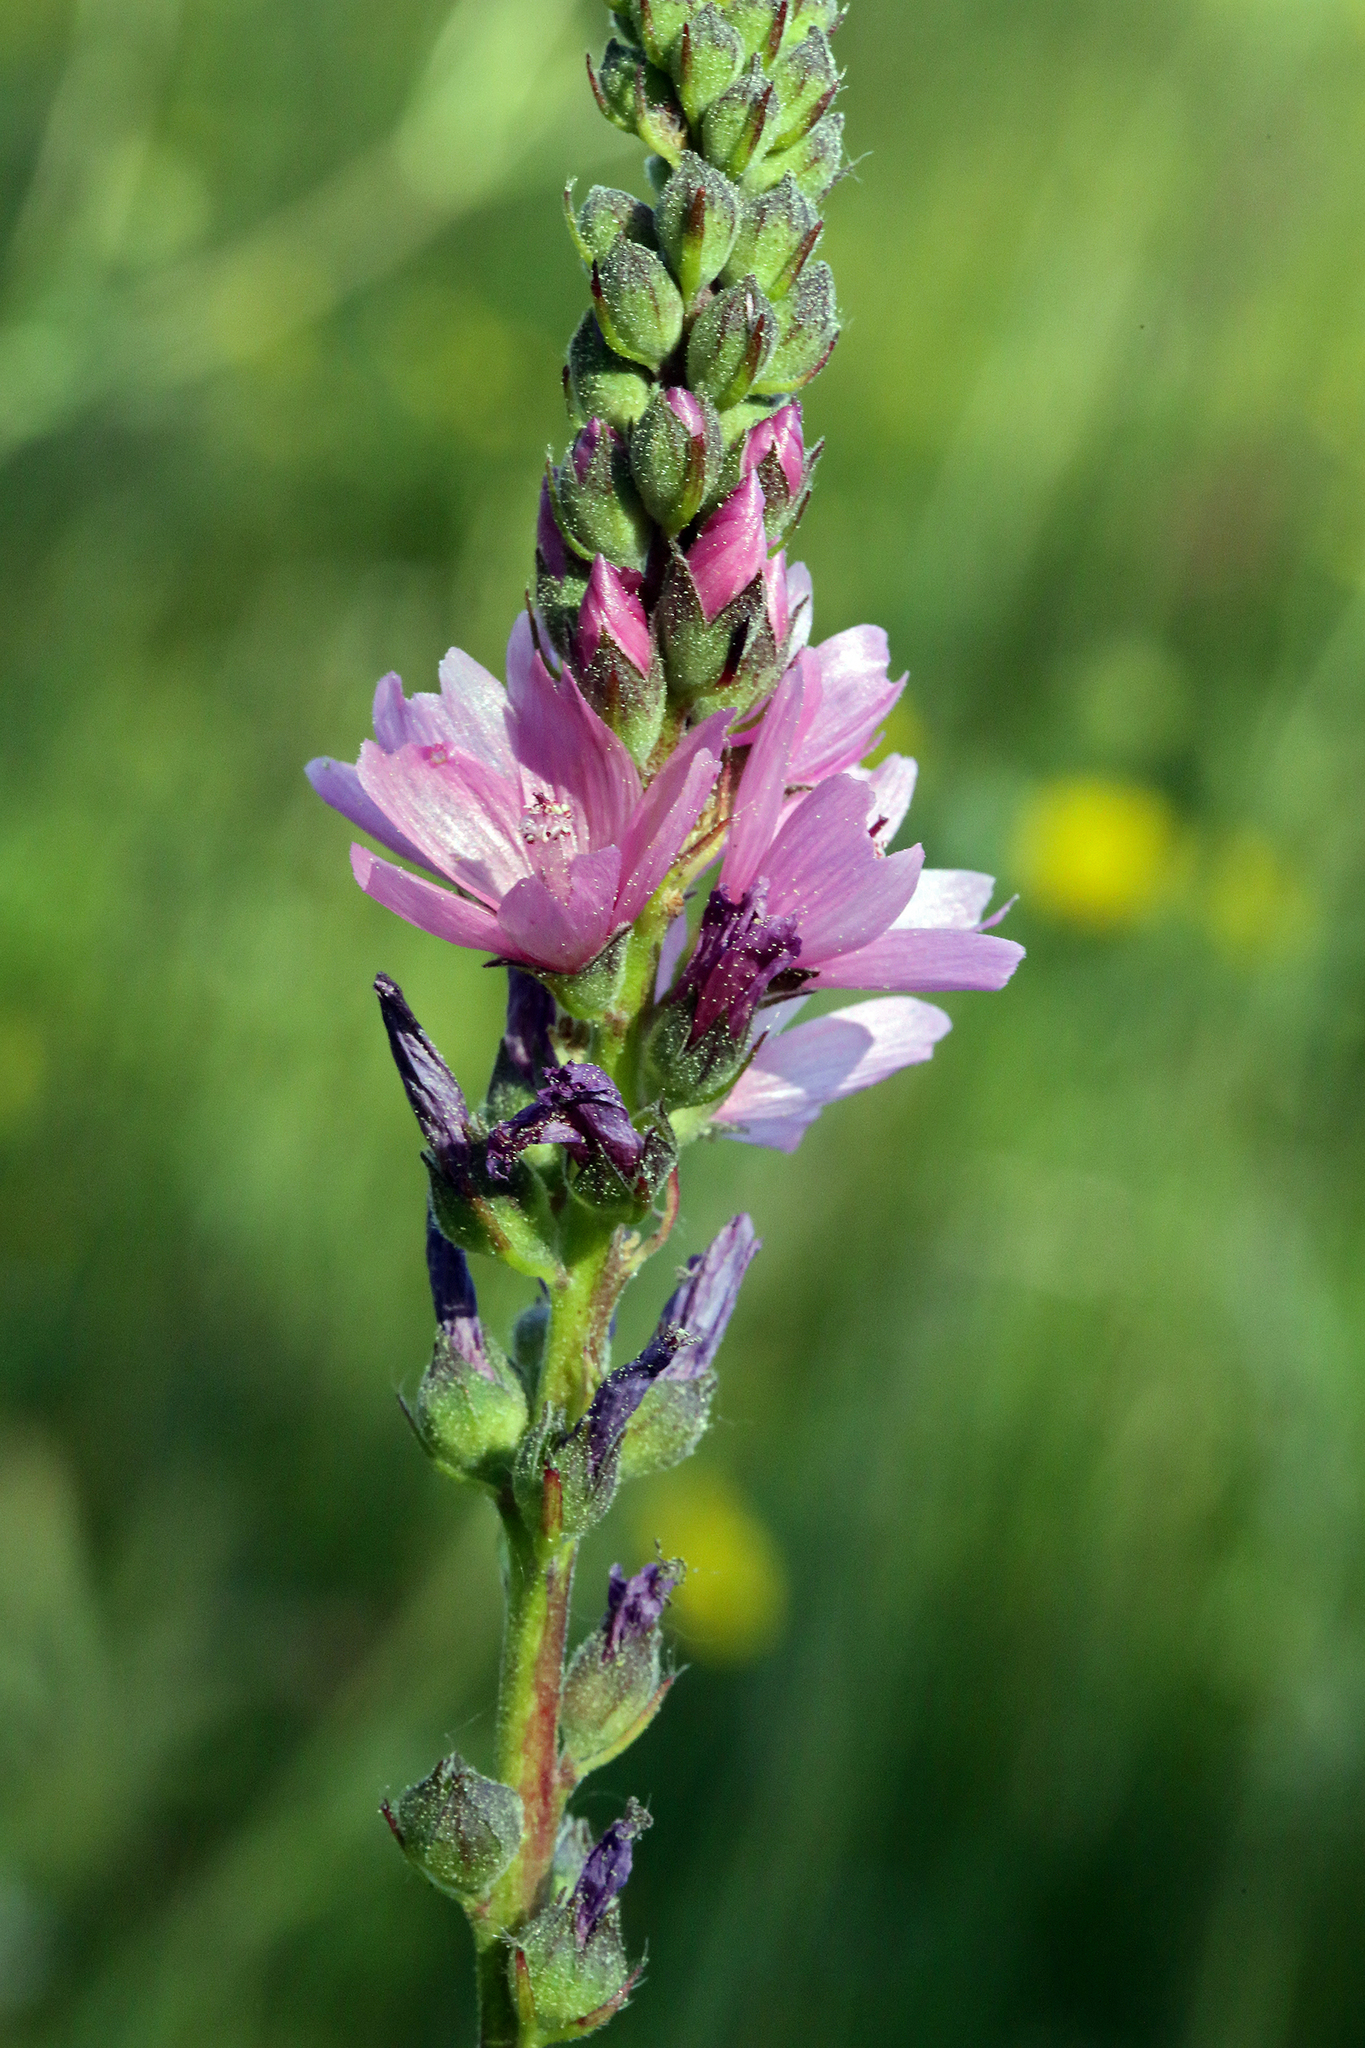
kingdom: Plantae
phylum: Tracheophyta
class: Magnoliopsida
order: Malvales
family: Malvaceae
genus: Sidalcea
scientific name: Sidalcea oregana
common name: Oregon checker-mallow
